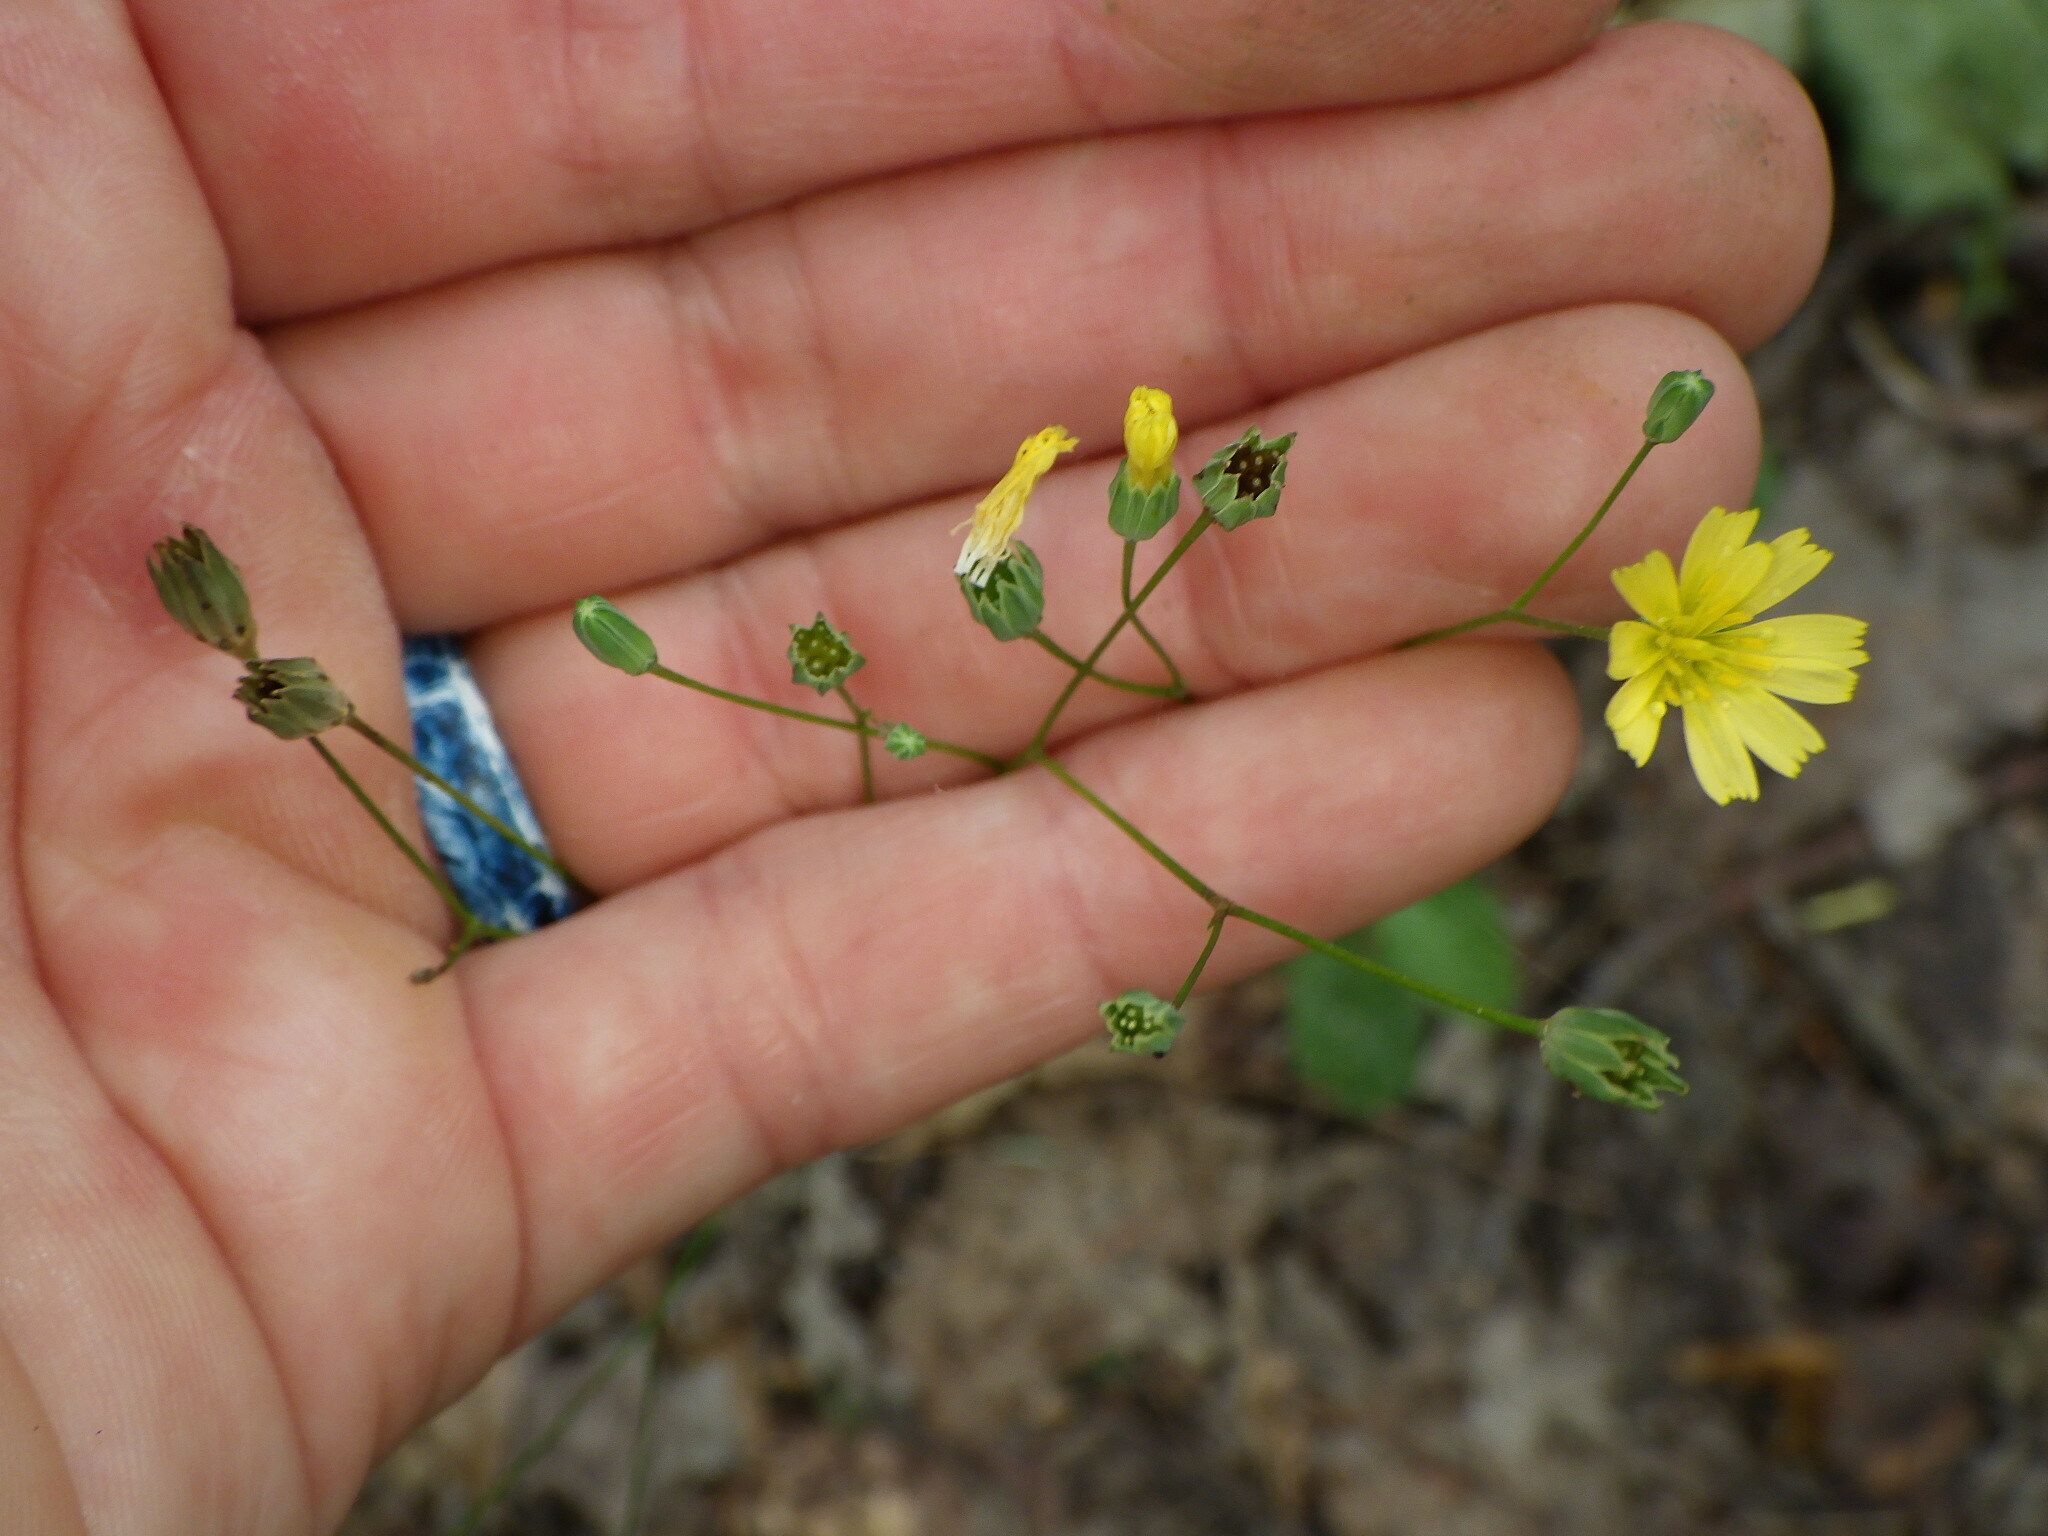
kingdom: Plantae
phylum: Tracheophyta
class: Magnoliopsida
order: Asterales
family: Asteraceae
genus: Lapsana
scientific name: Lapsana communis
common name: Nipplewort
